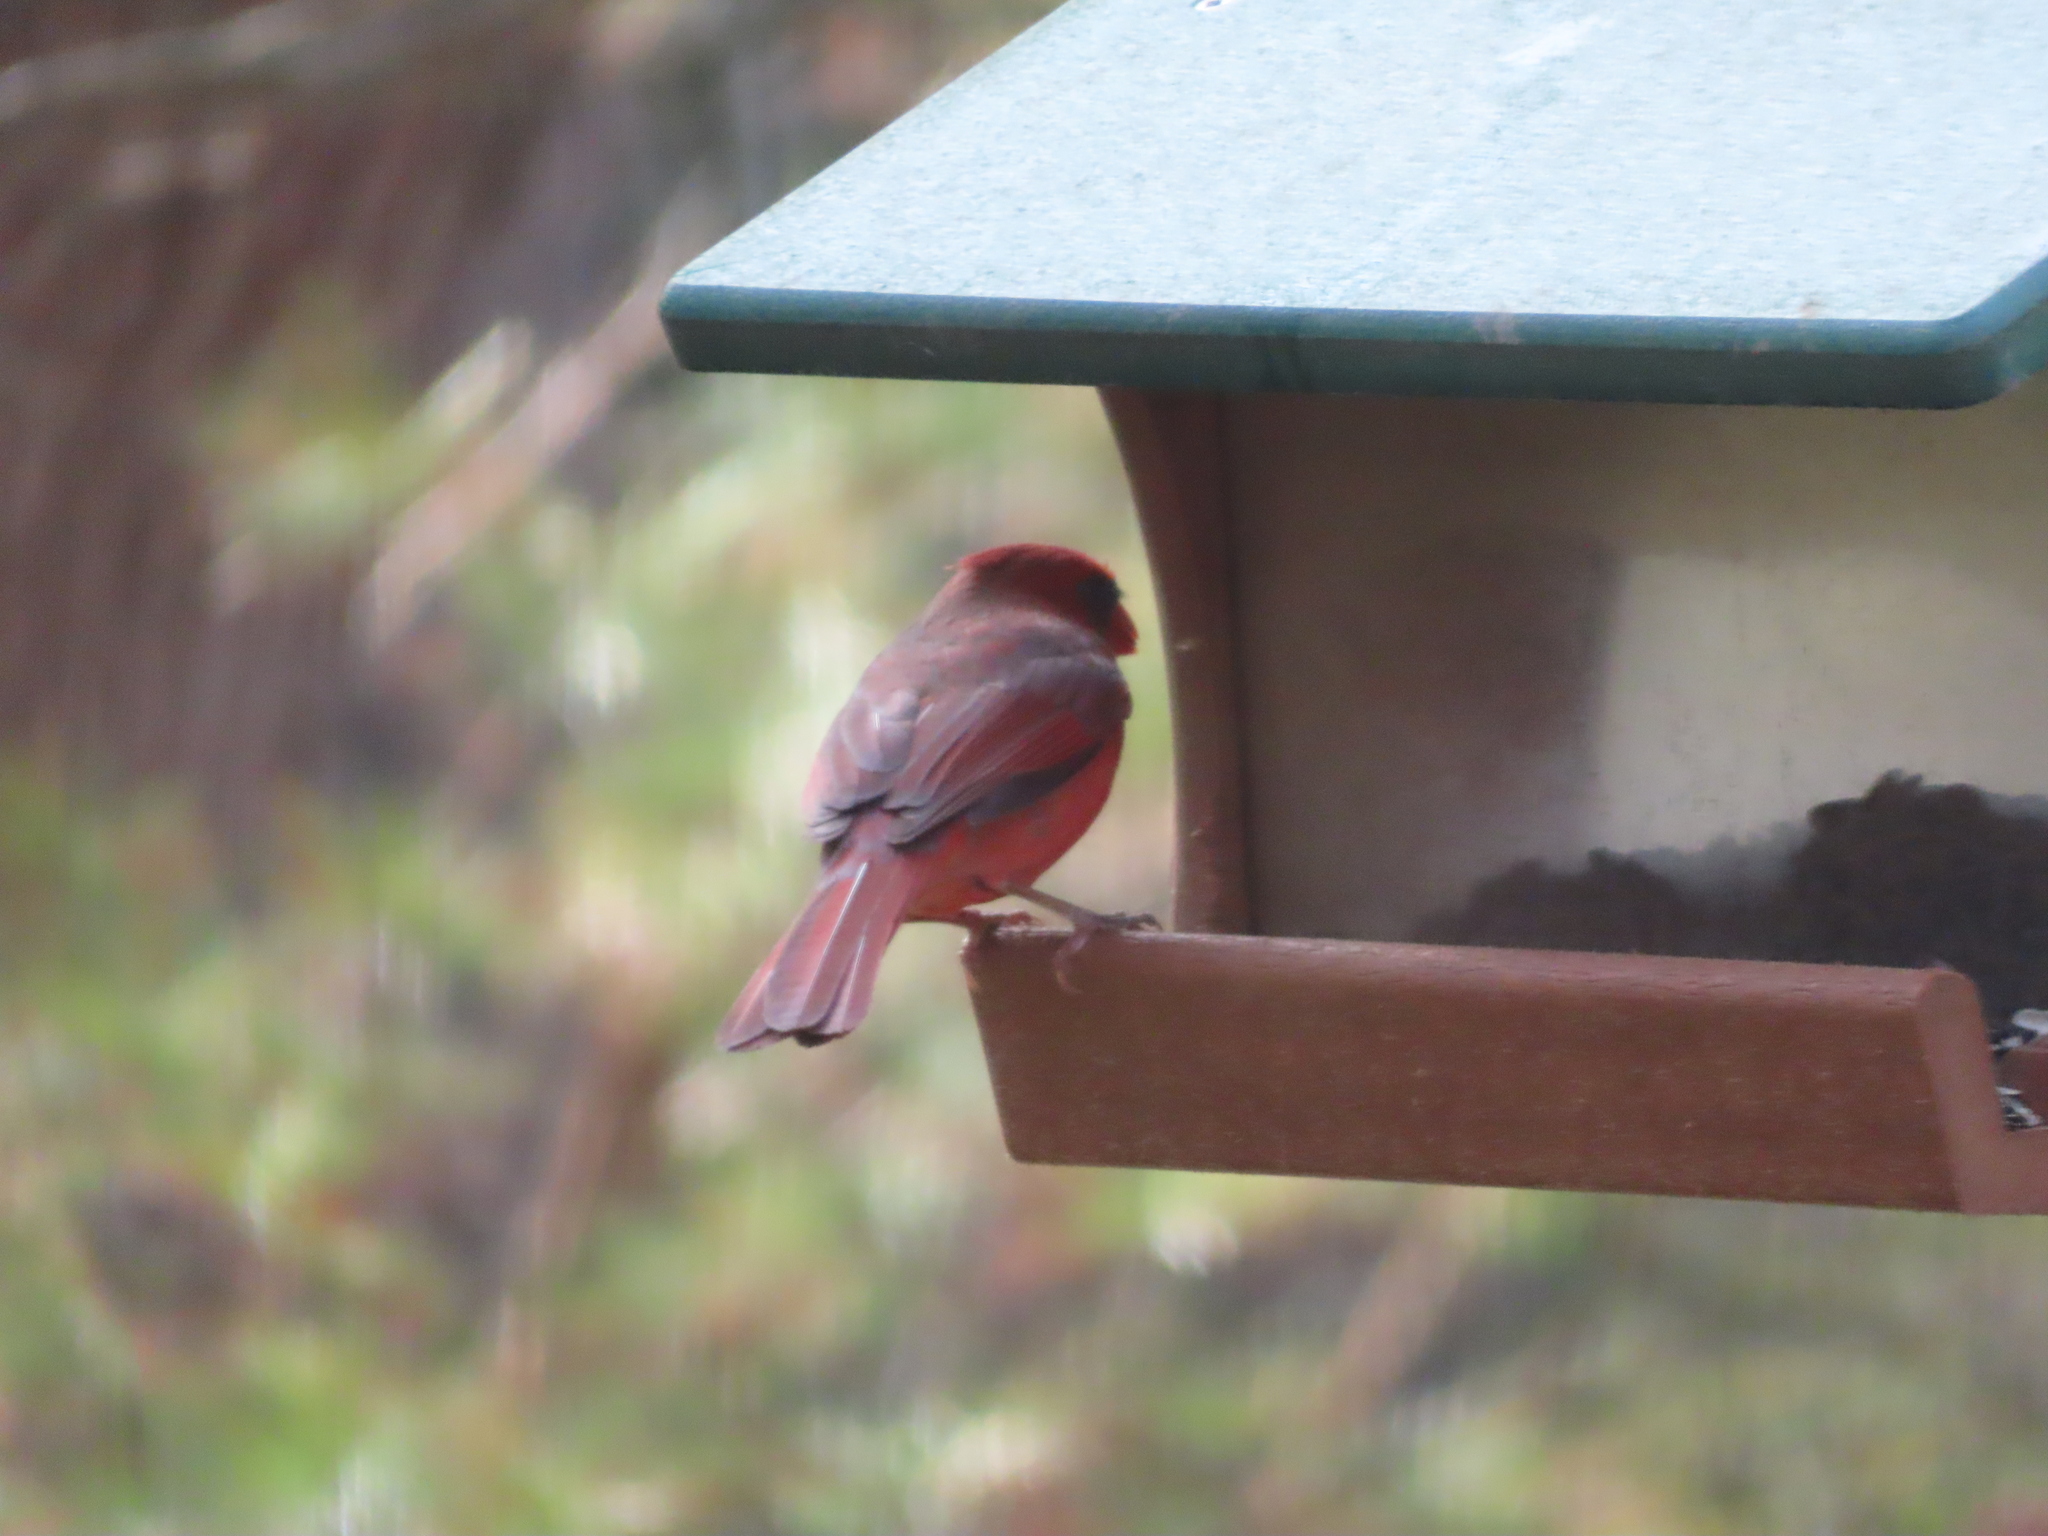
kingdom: Animalia
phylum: Chordata
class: Aves
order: Passeriformes
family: Cardinalidae
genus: Cardinalis
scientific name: Cardinalis cardinalis
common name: Northern cardinal
